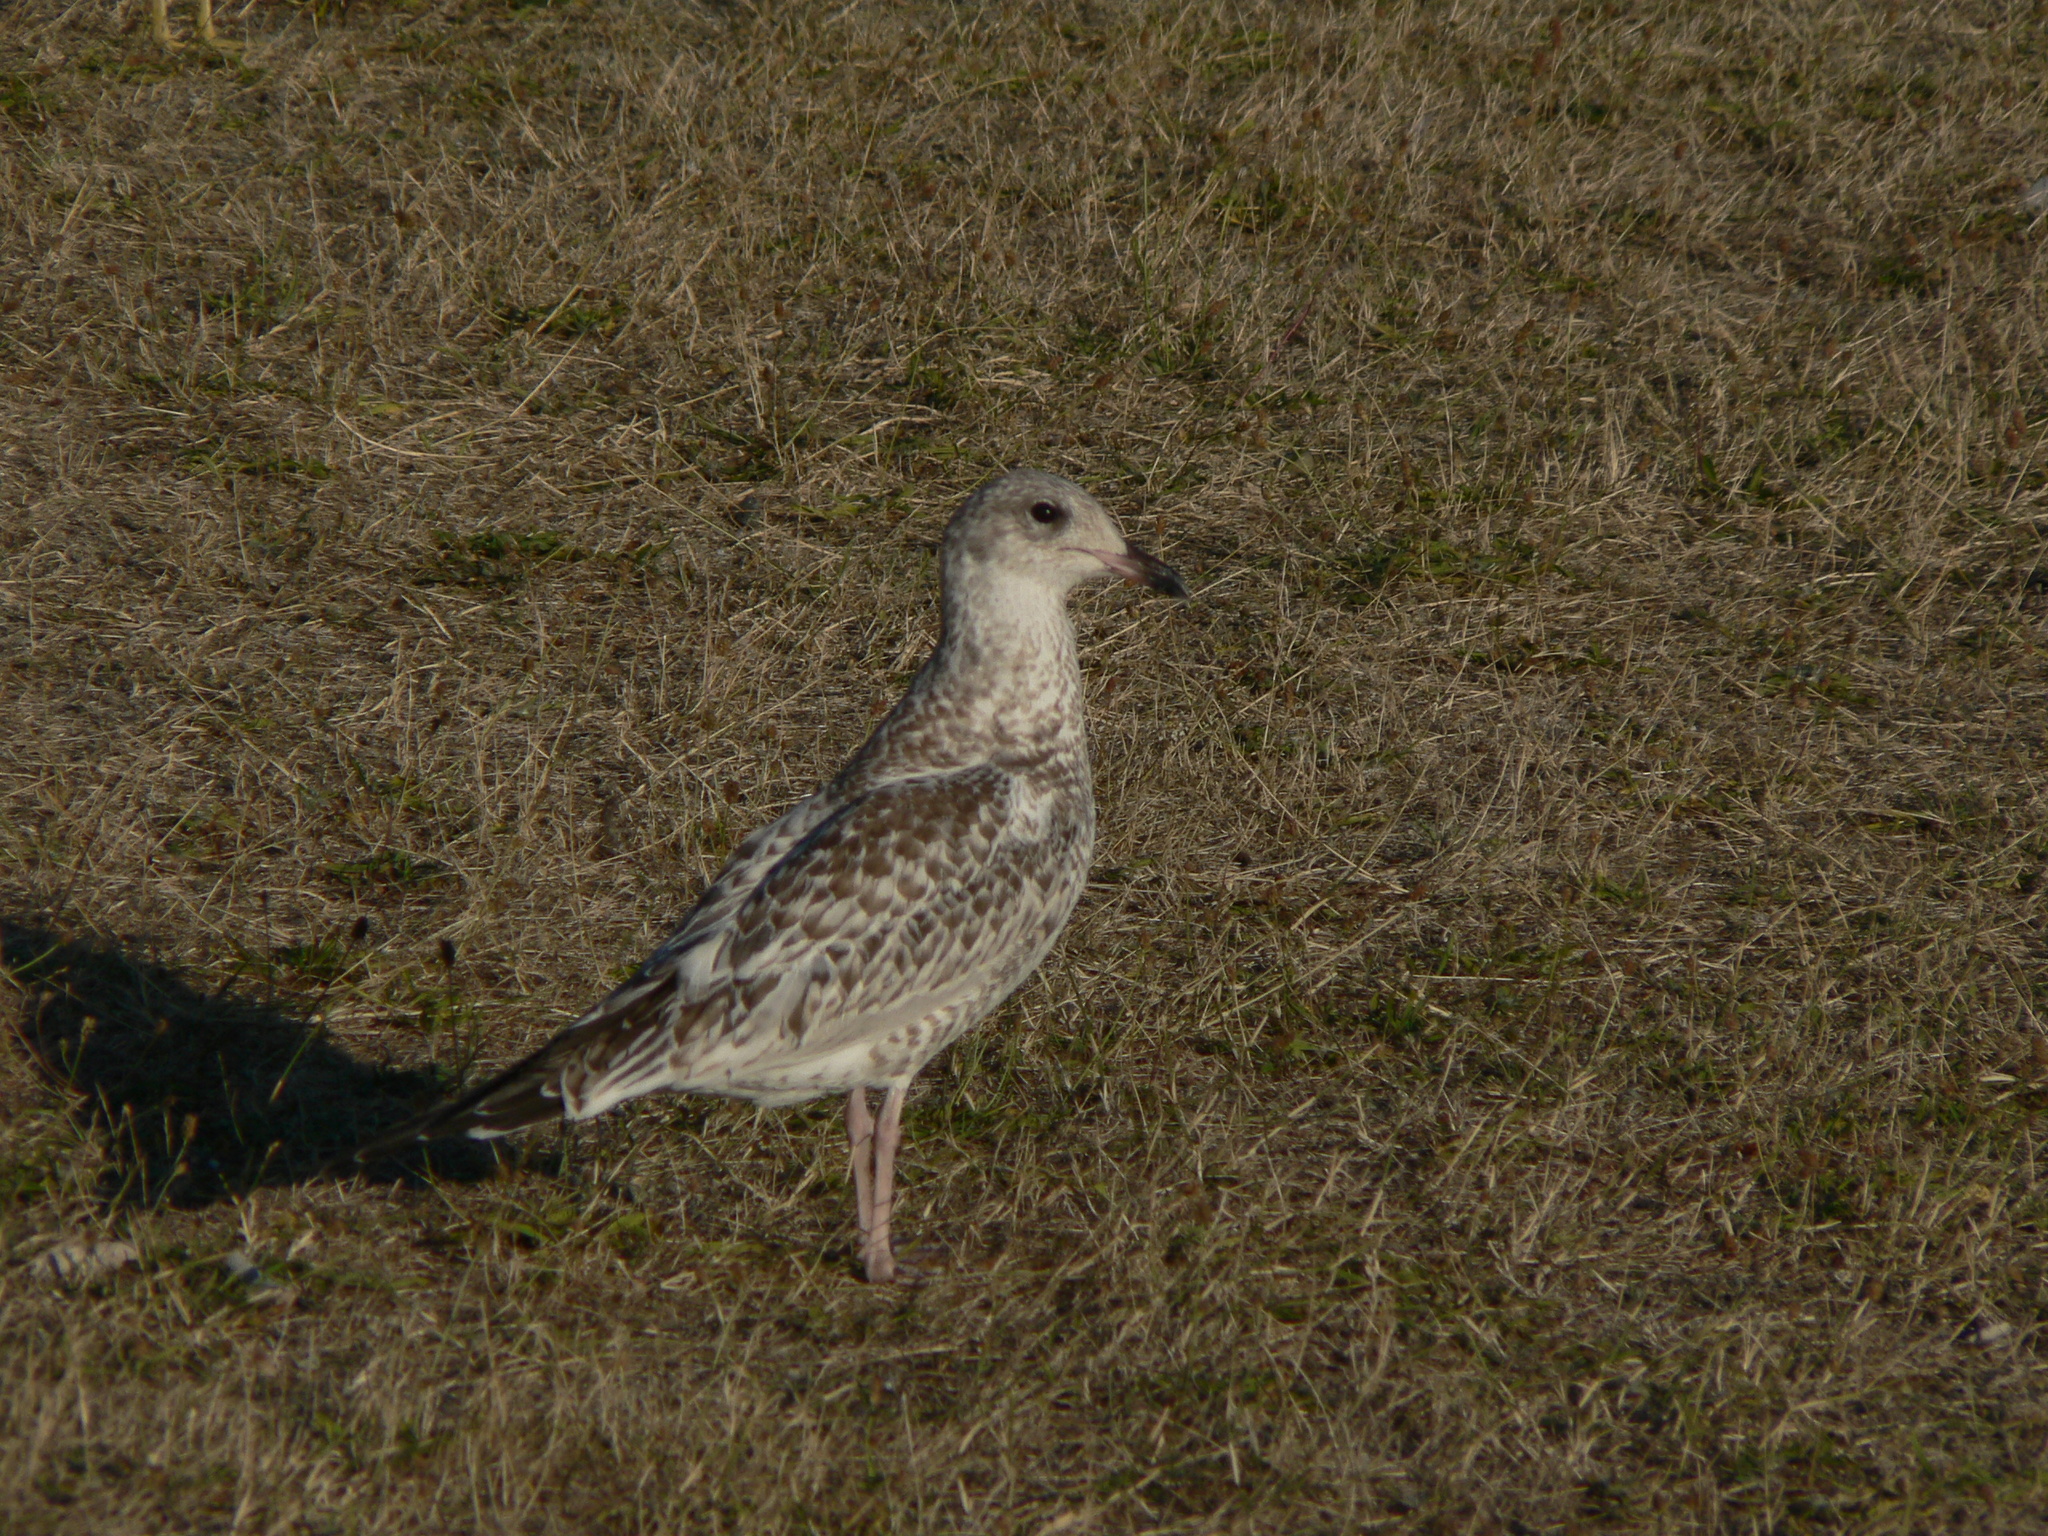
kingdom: Animalia
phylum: Chordata
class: Aves
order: Charadriiformes
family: Laridae
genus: Larus
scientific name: Larus delawarensis
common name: Ring-billed gull
